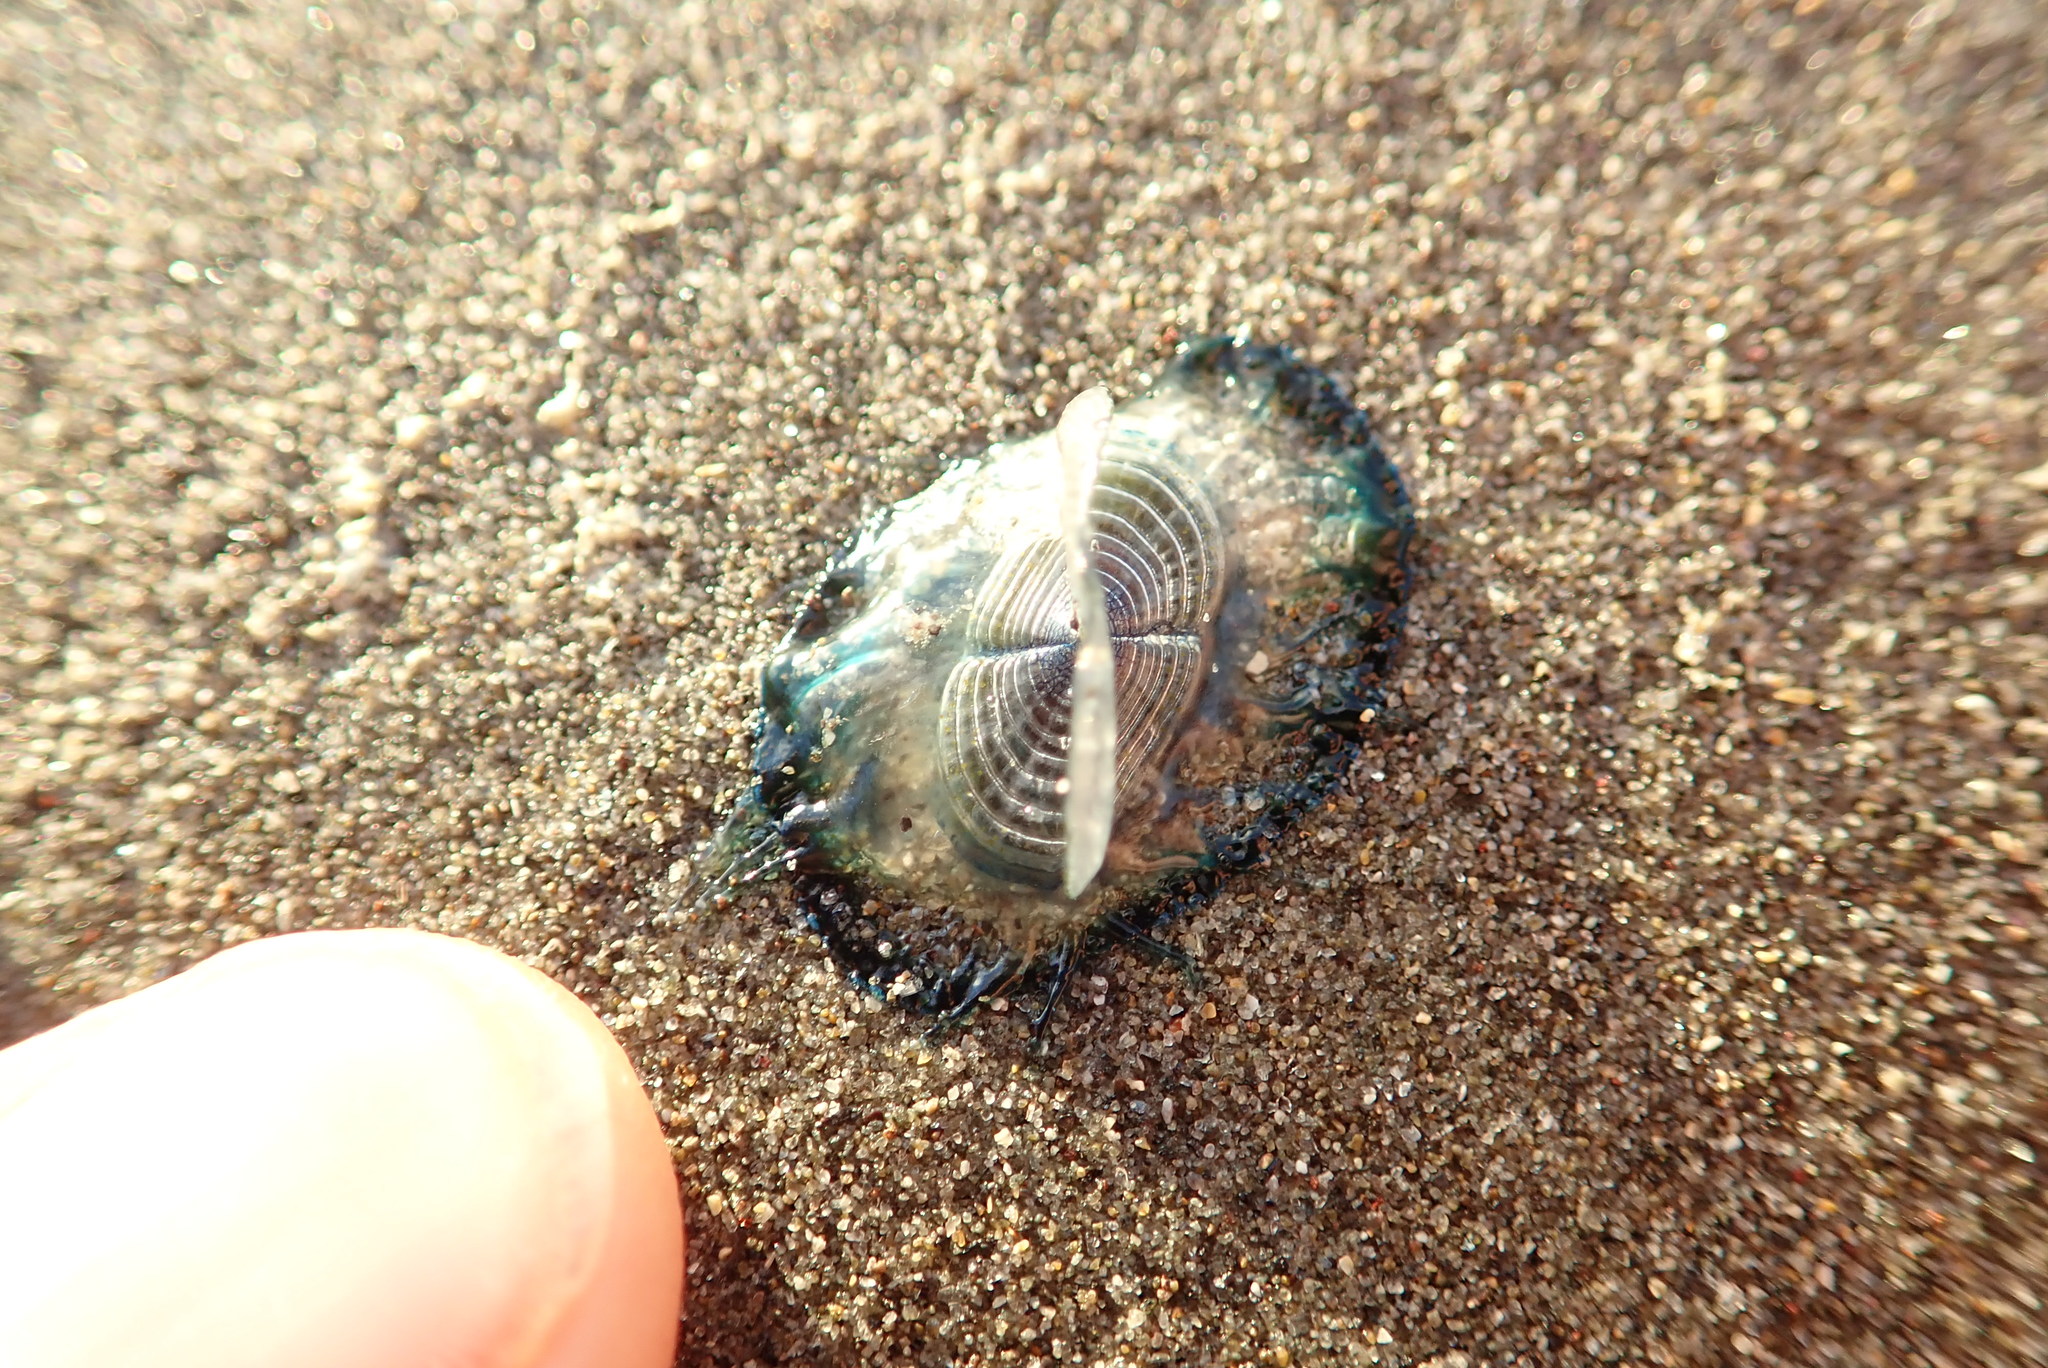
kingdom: Animalia
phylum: Cnidaria
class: Hydrozoa
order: Anthoathecata
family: Porpitidae
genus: Velella
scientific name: Velella velella
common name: By-the-wind-sailor
